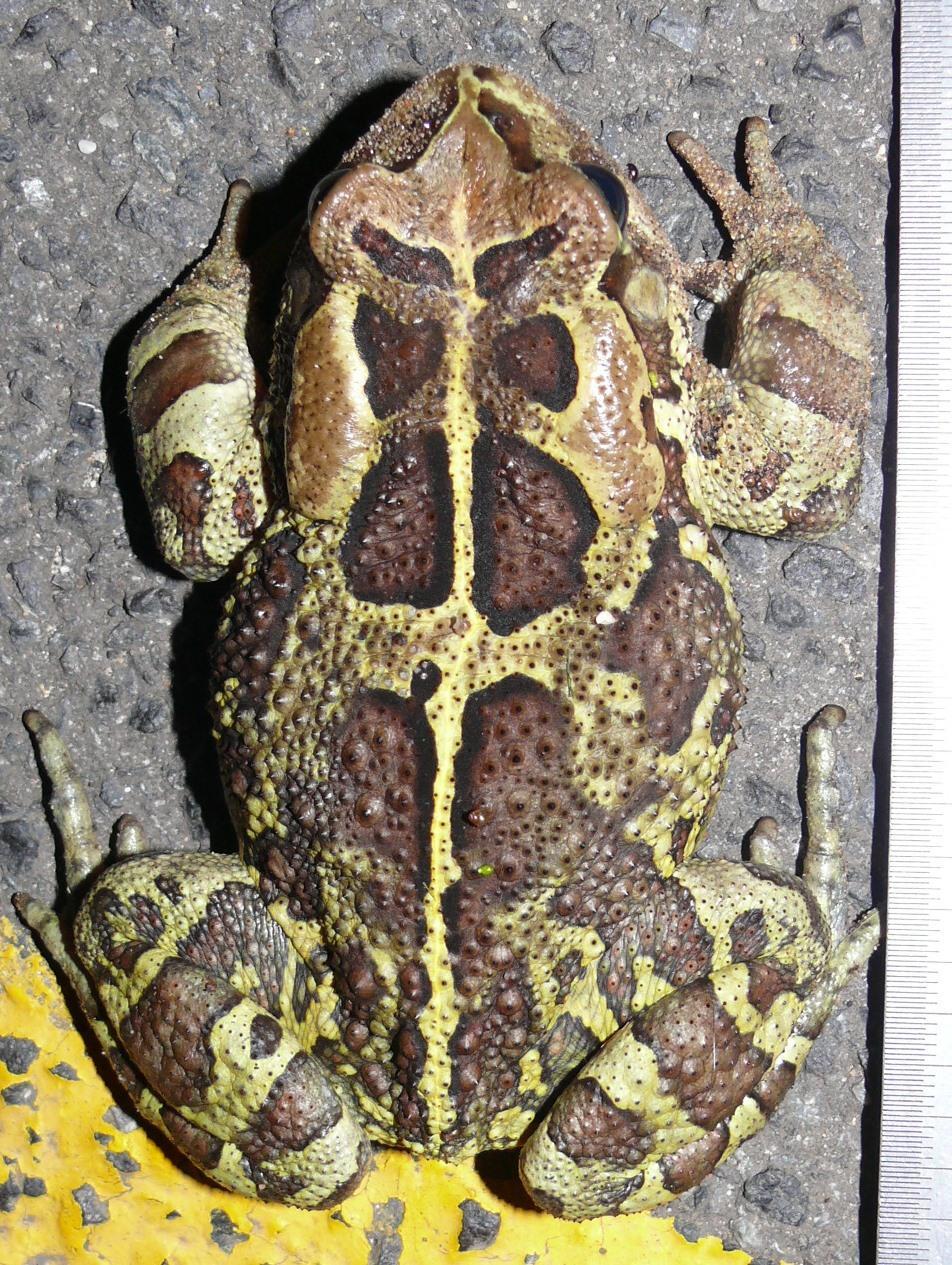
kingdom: Animalia
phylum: Chordata
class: Amphibia
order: Anura
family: Bufonidae
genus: Sclerophrys
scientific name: Sclerophrys pantherina
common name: Panther toad
